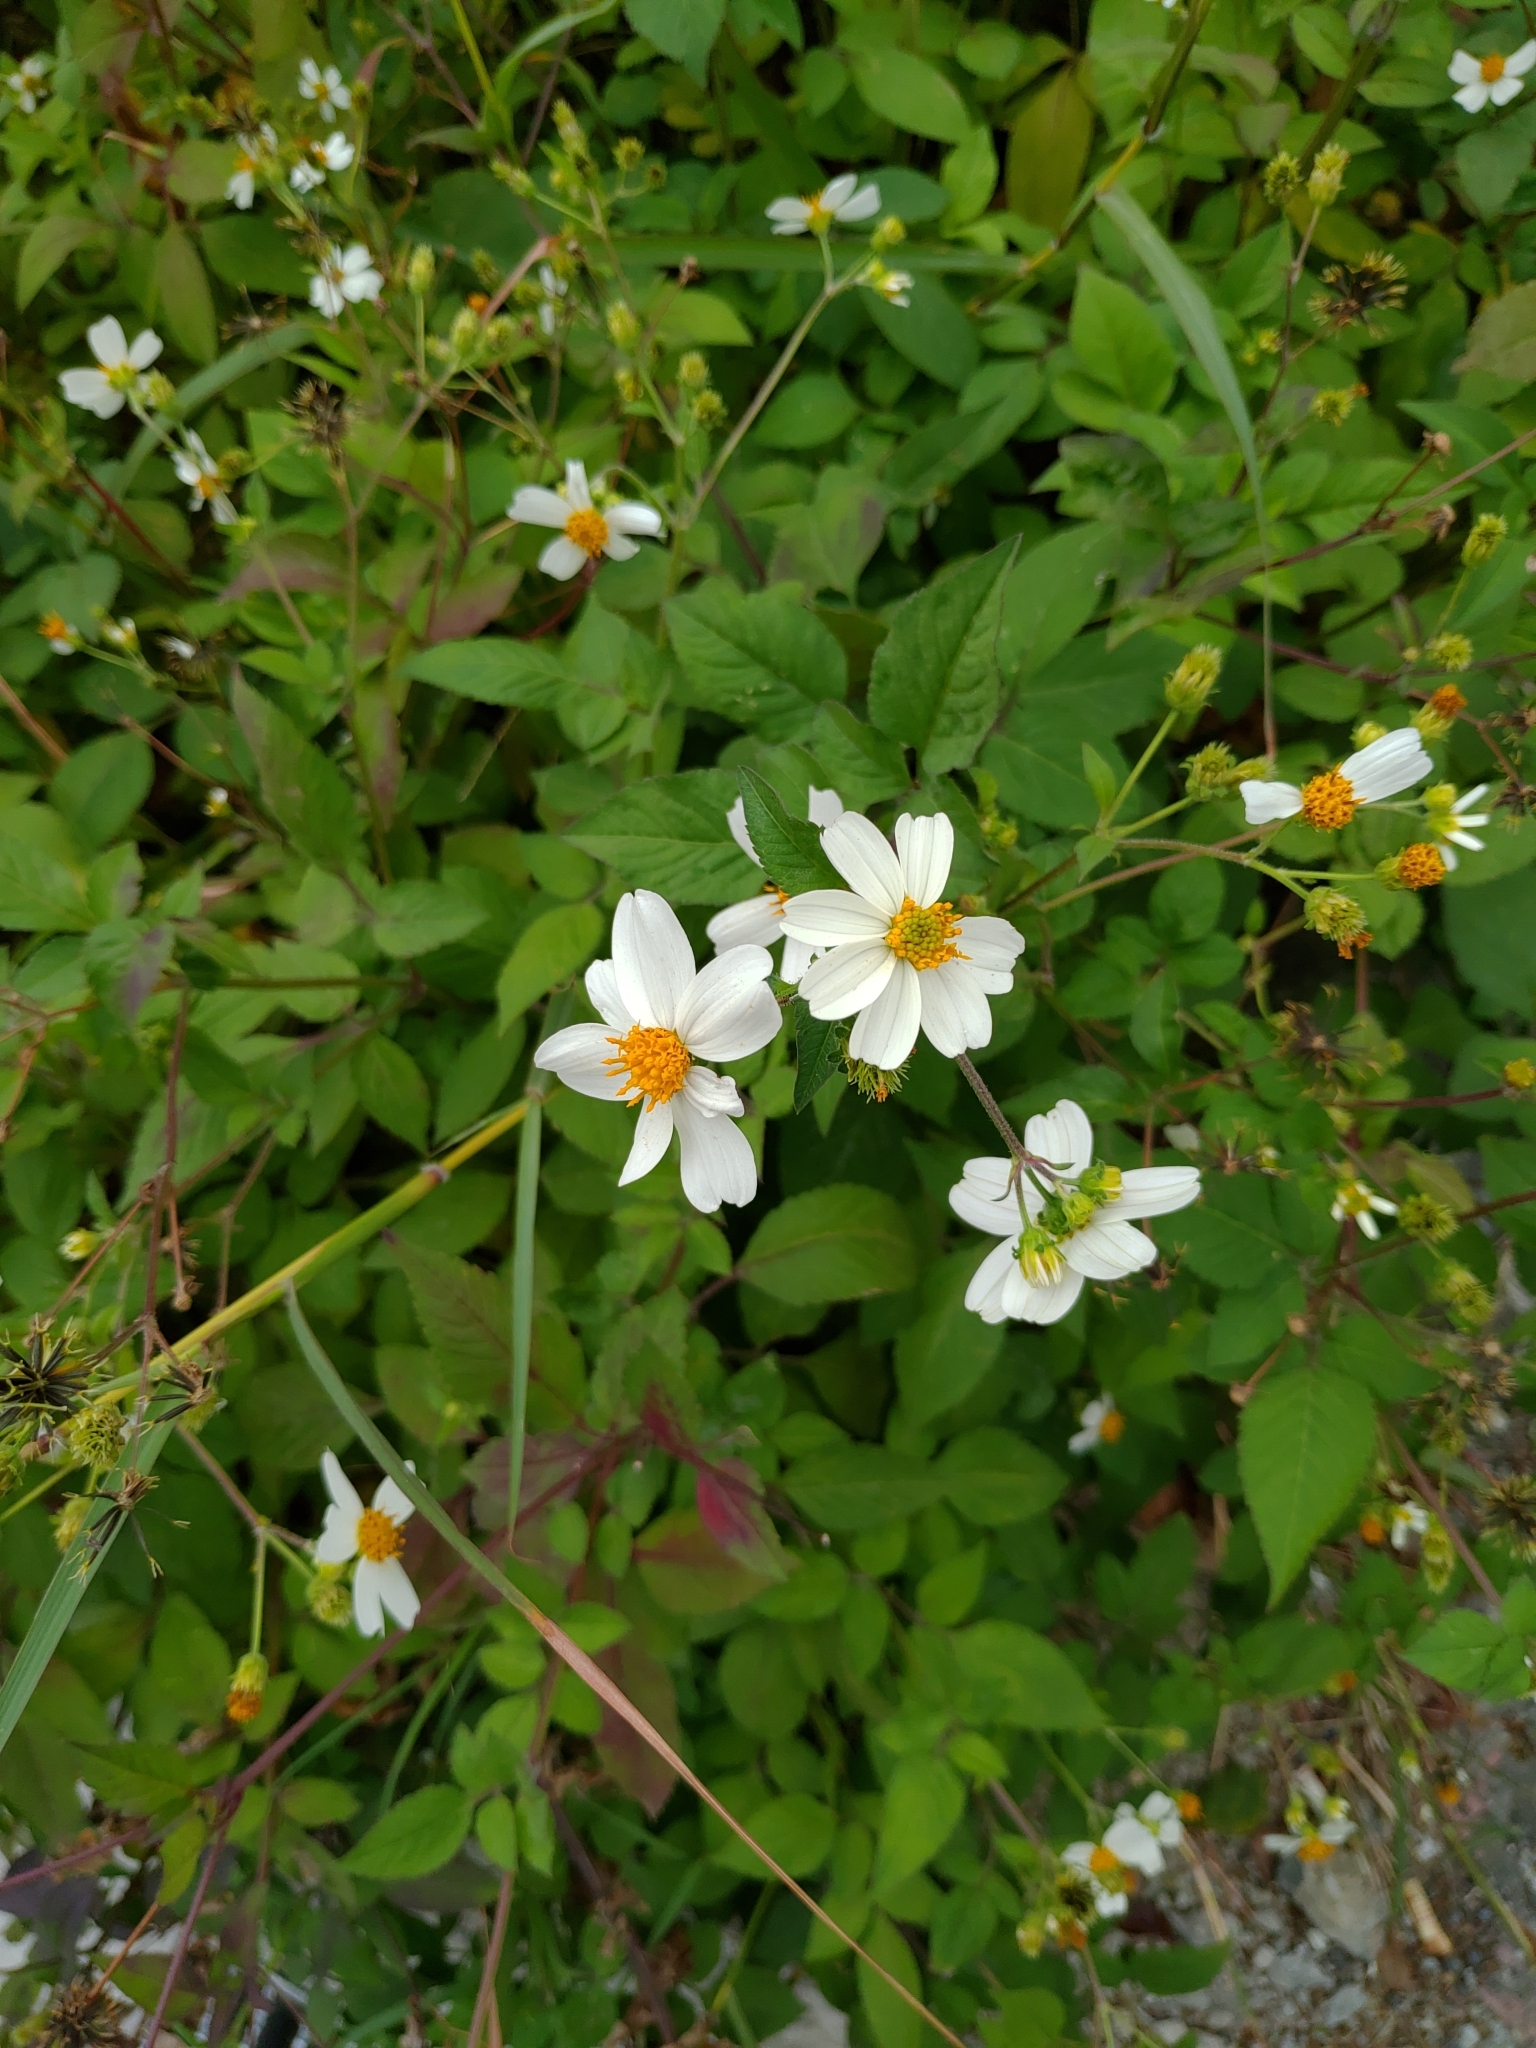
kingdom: Plantae
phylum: Tracheophyta
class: Magnoliopsida
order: Asterales
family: Asteraceae
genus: Bidens
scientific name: Bidens alba
